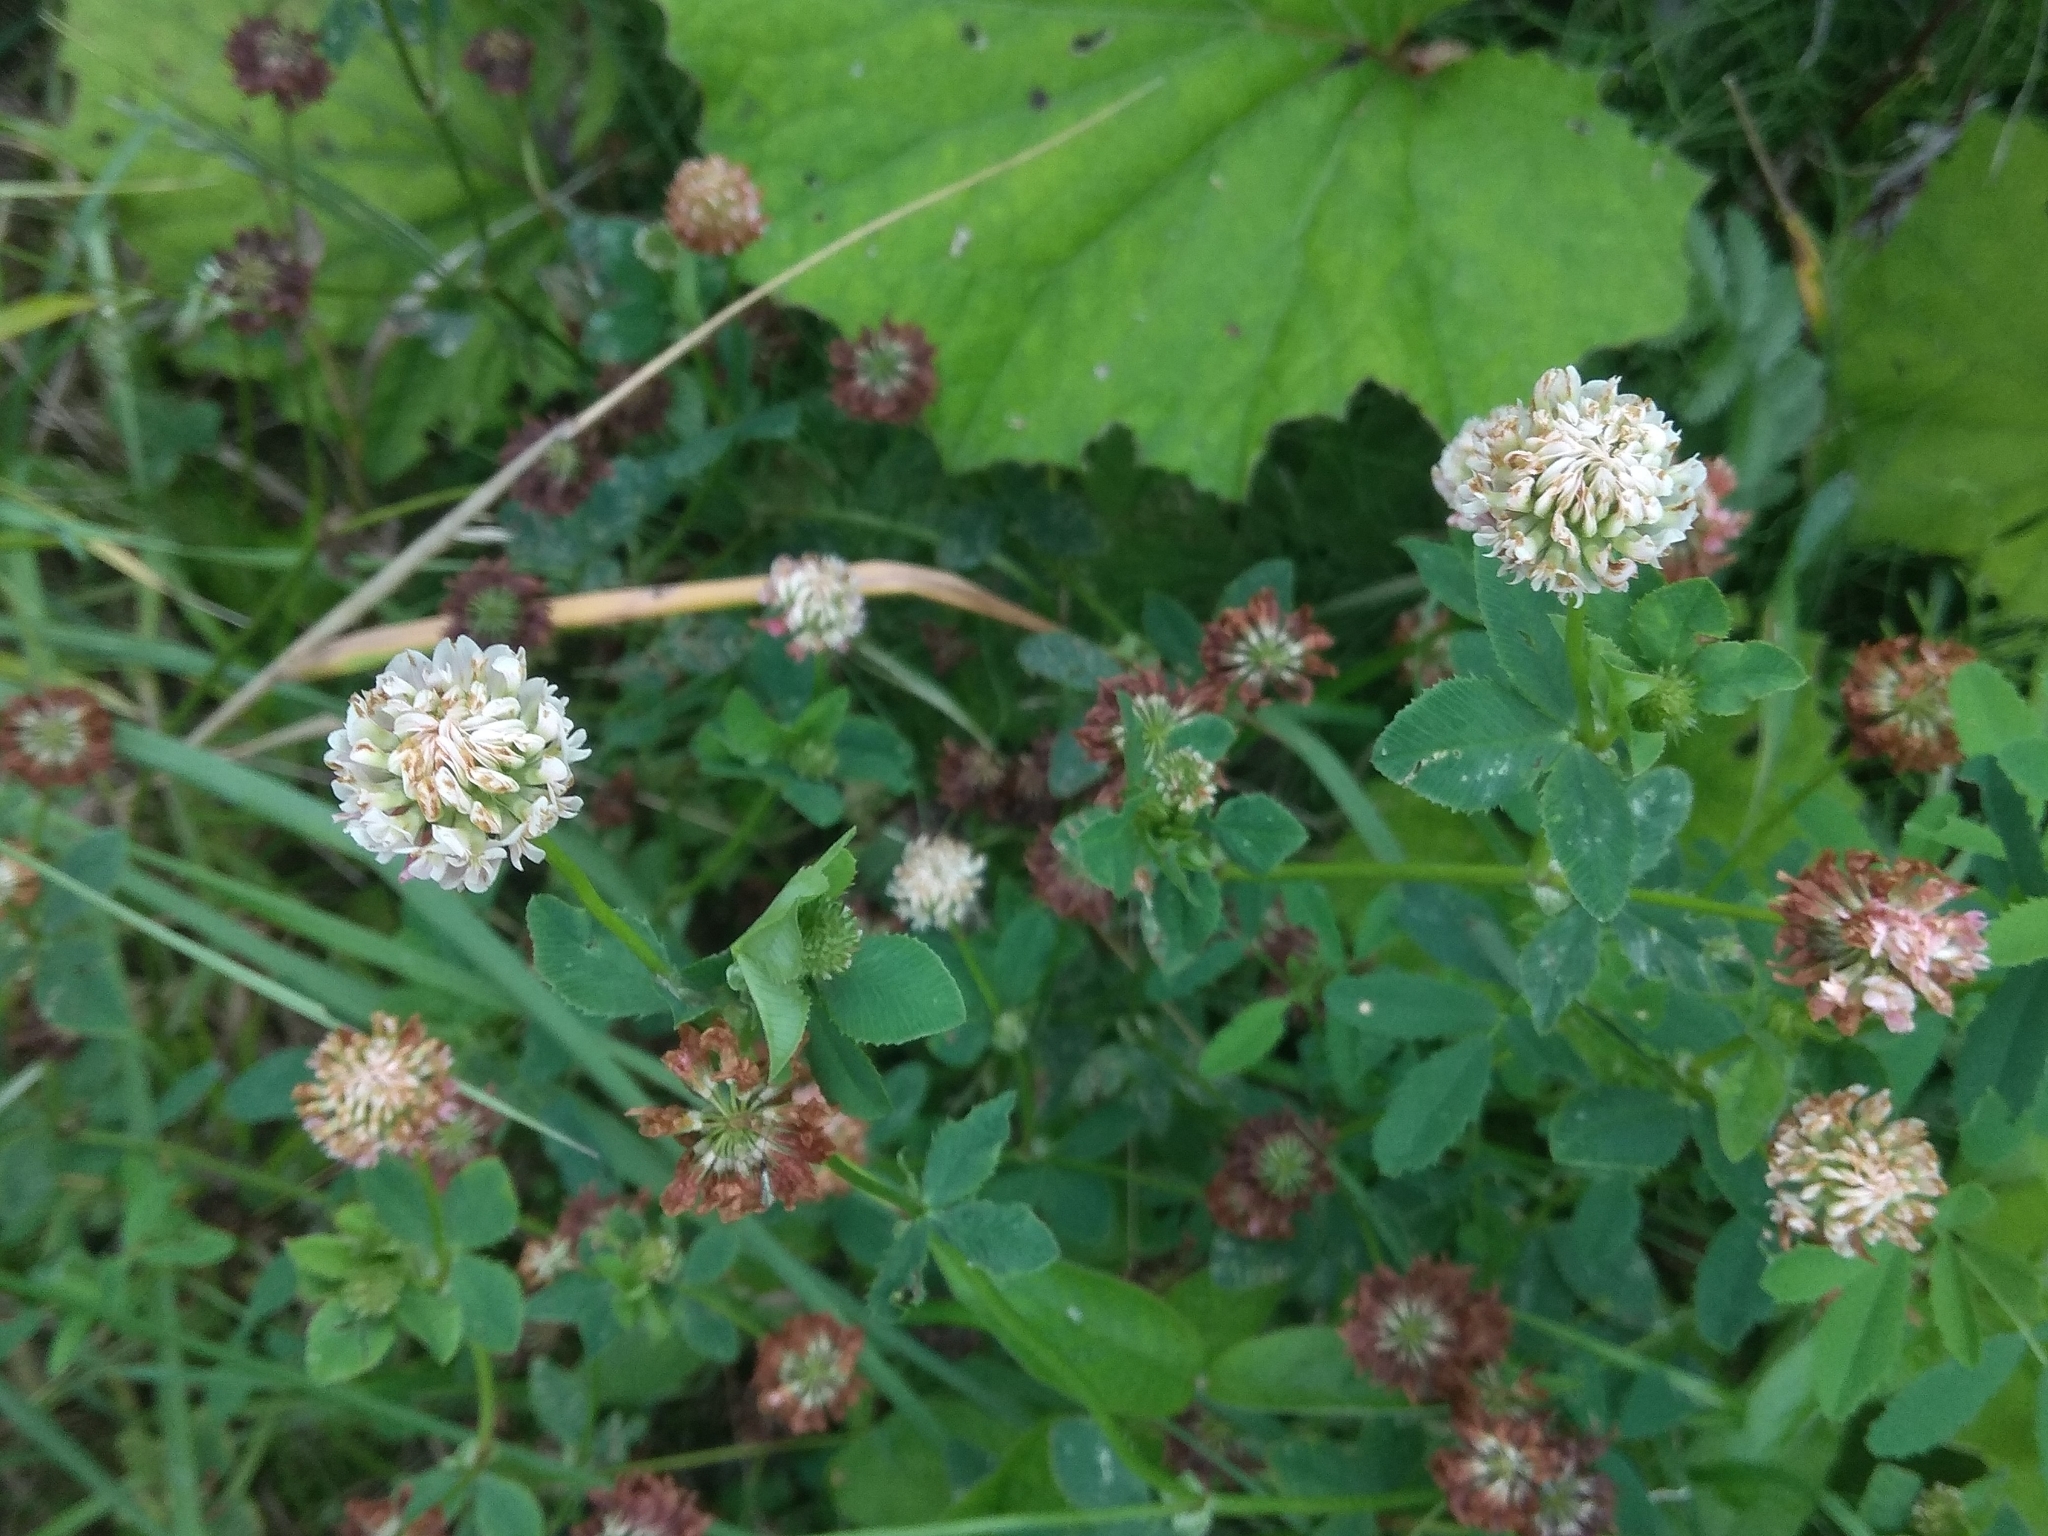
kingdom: Plantae
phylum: Tracheophyta
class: Magnoliopsida
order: Fabales
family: Fabaceae
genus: Trifolium
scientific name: Trifolium hybridum
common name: Alsike clover
